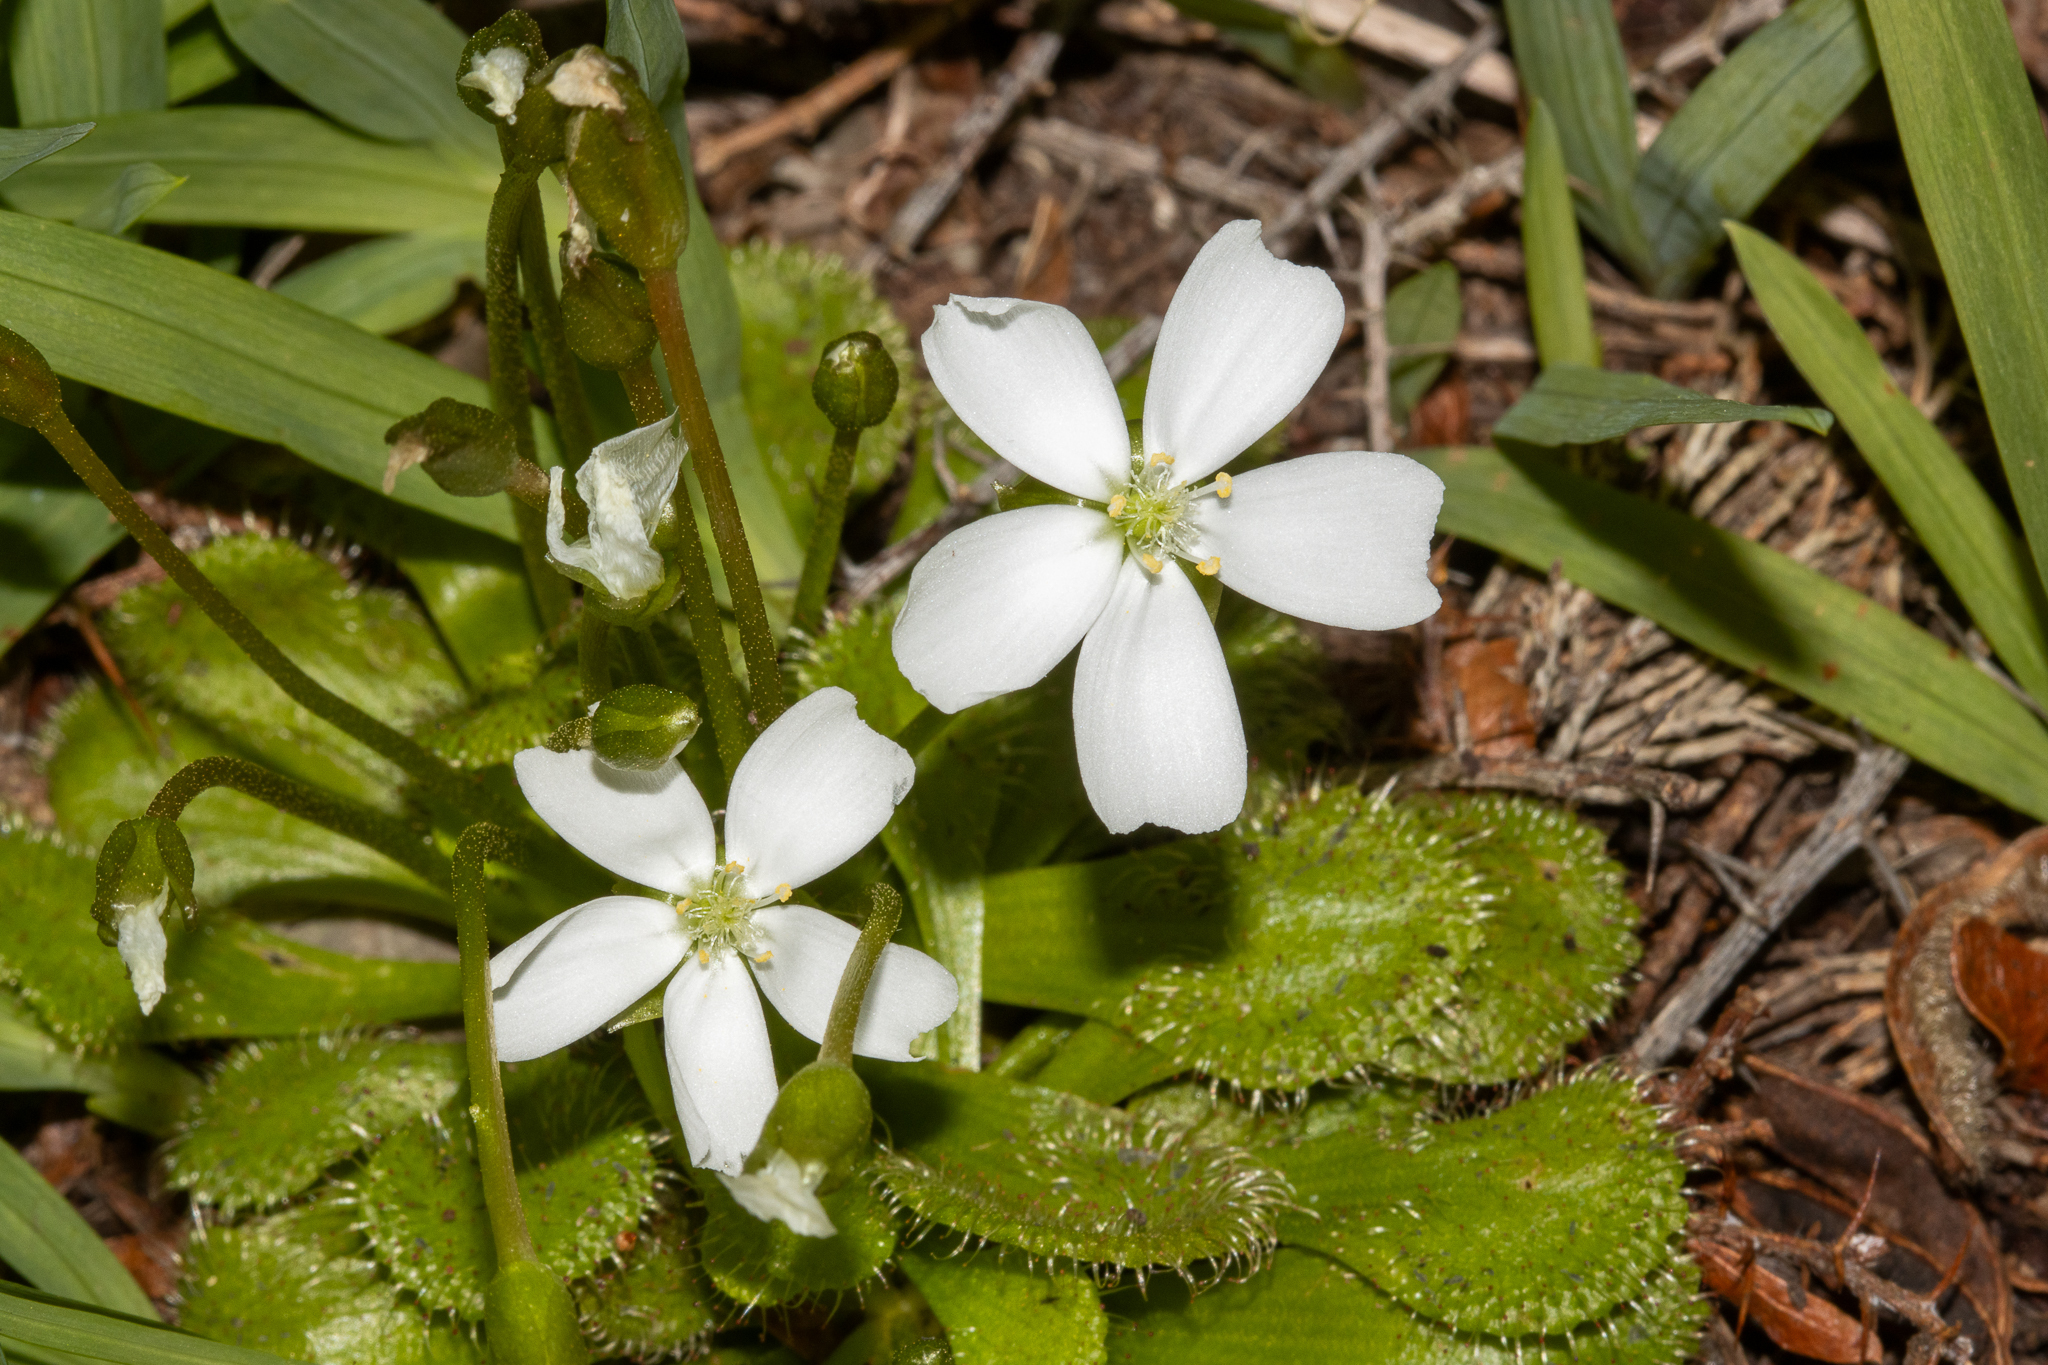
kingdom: Plantae
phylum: Tracheophyta
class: Magnoliopsida
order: Caryophyllales
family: Droseraceae
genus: Drosera
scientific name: Drosera whittakeri
